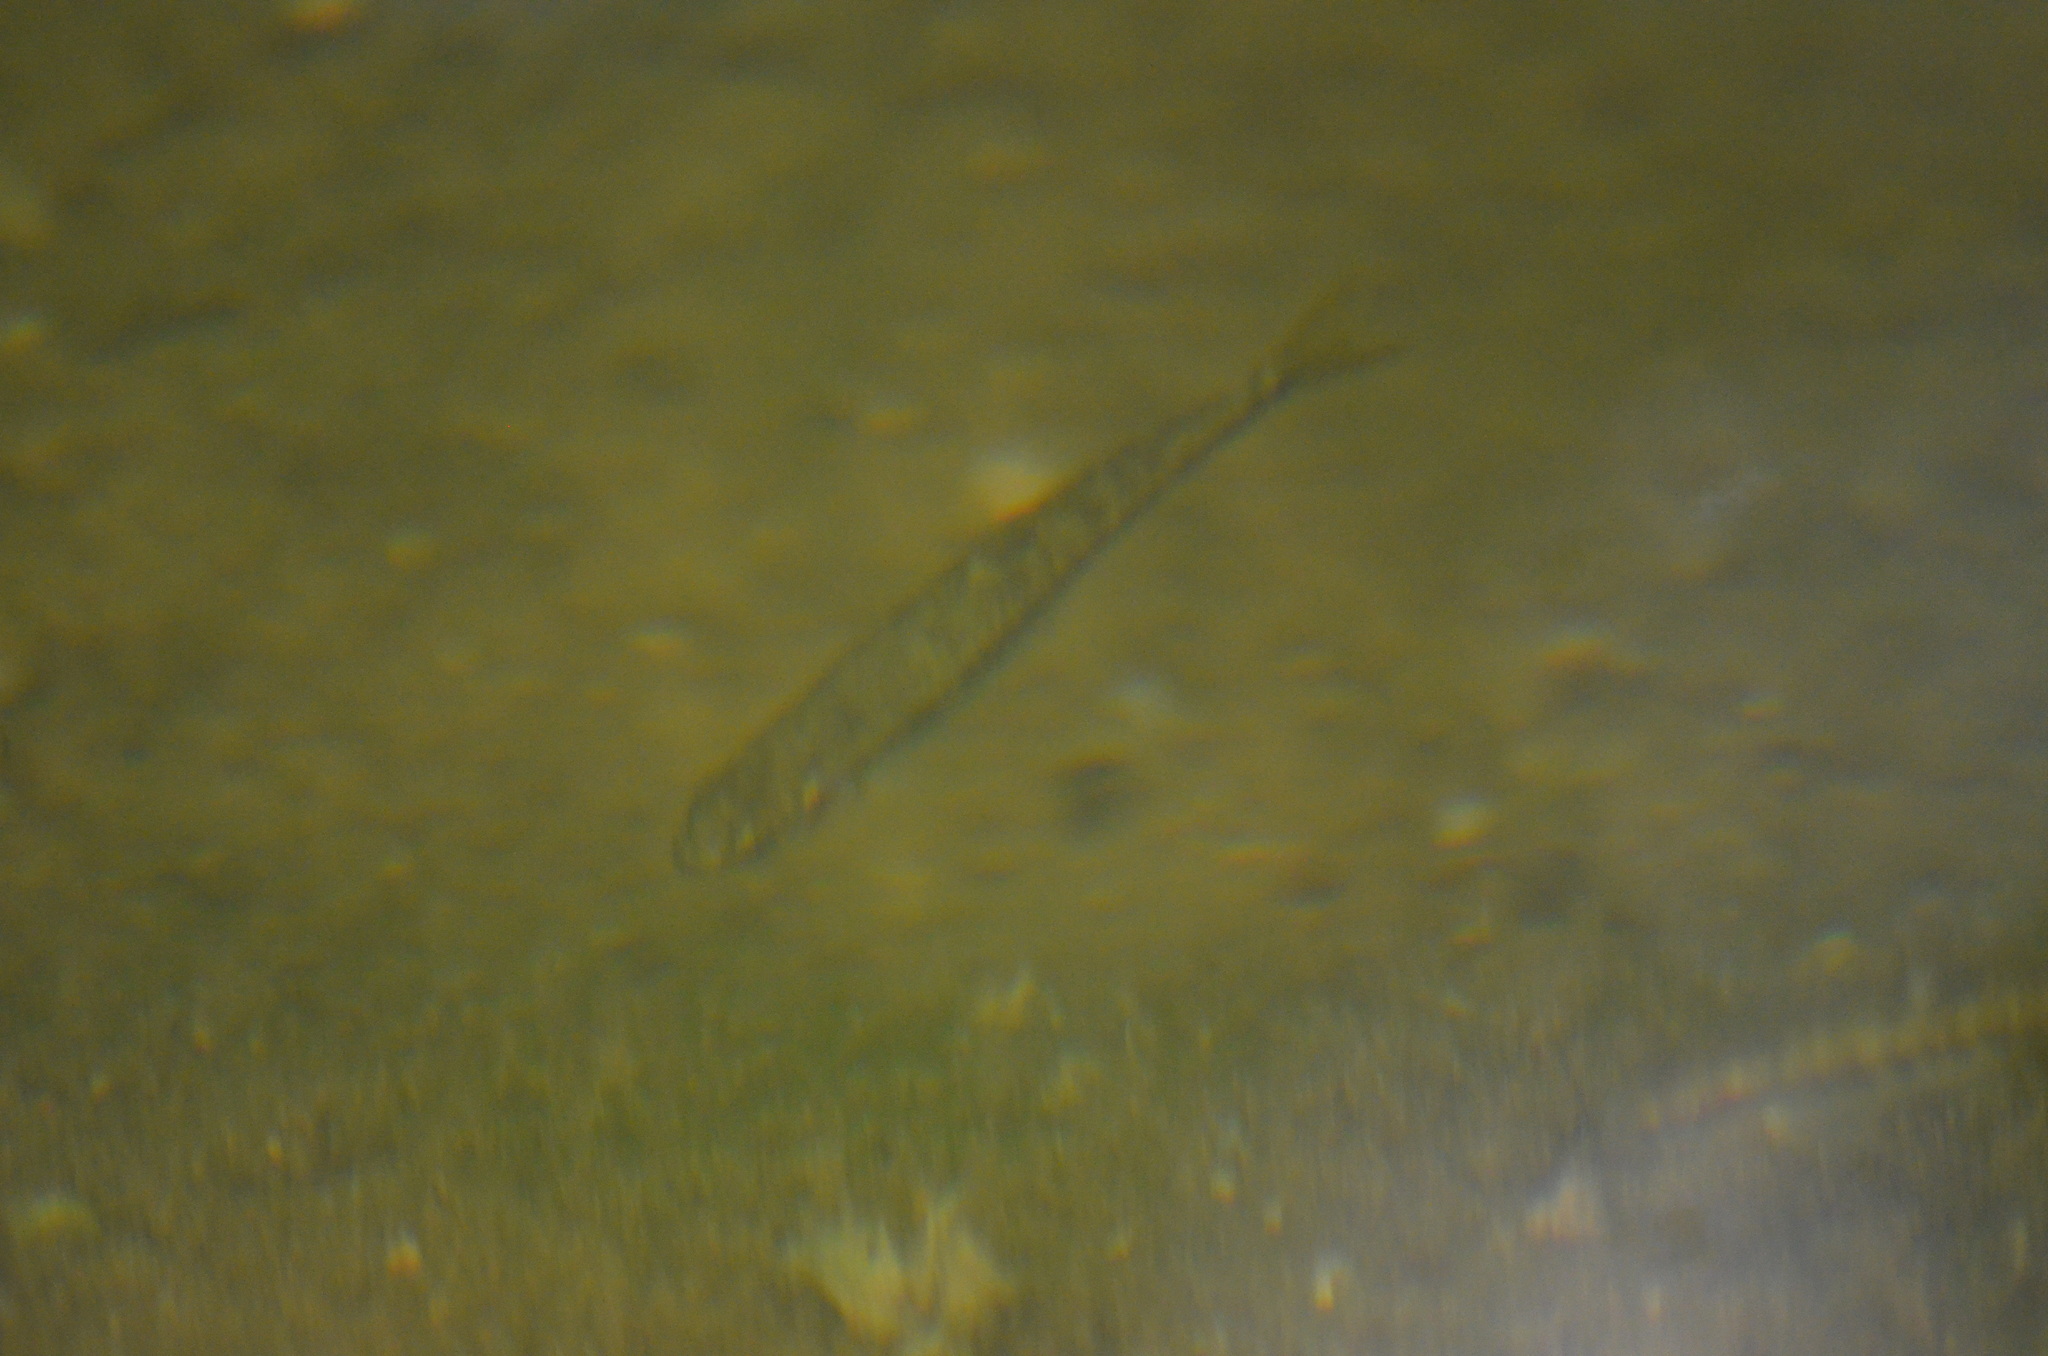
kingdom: Animalia
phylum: Chordata
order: Cypriniformes
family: Cyprinidae
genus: Phoxinus
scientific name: Phoxinus bigerri
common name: Adour minnow
